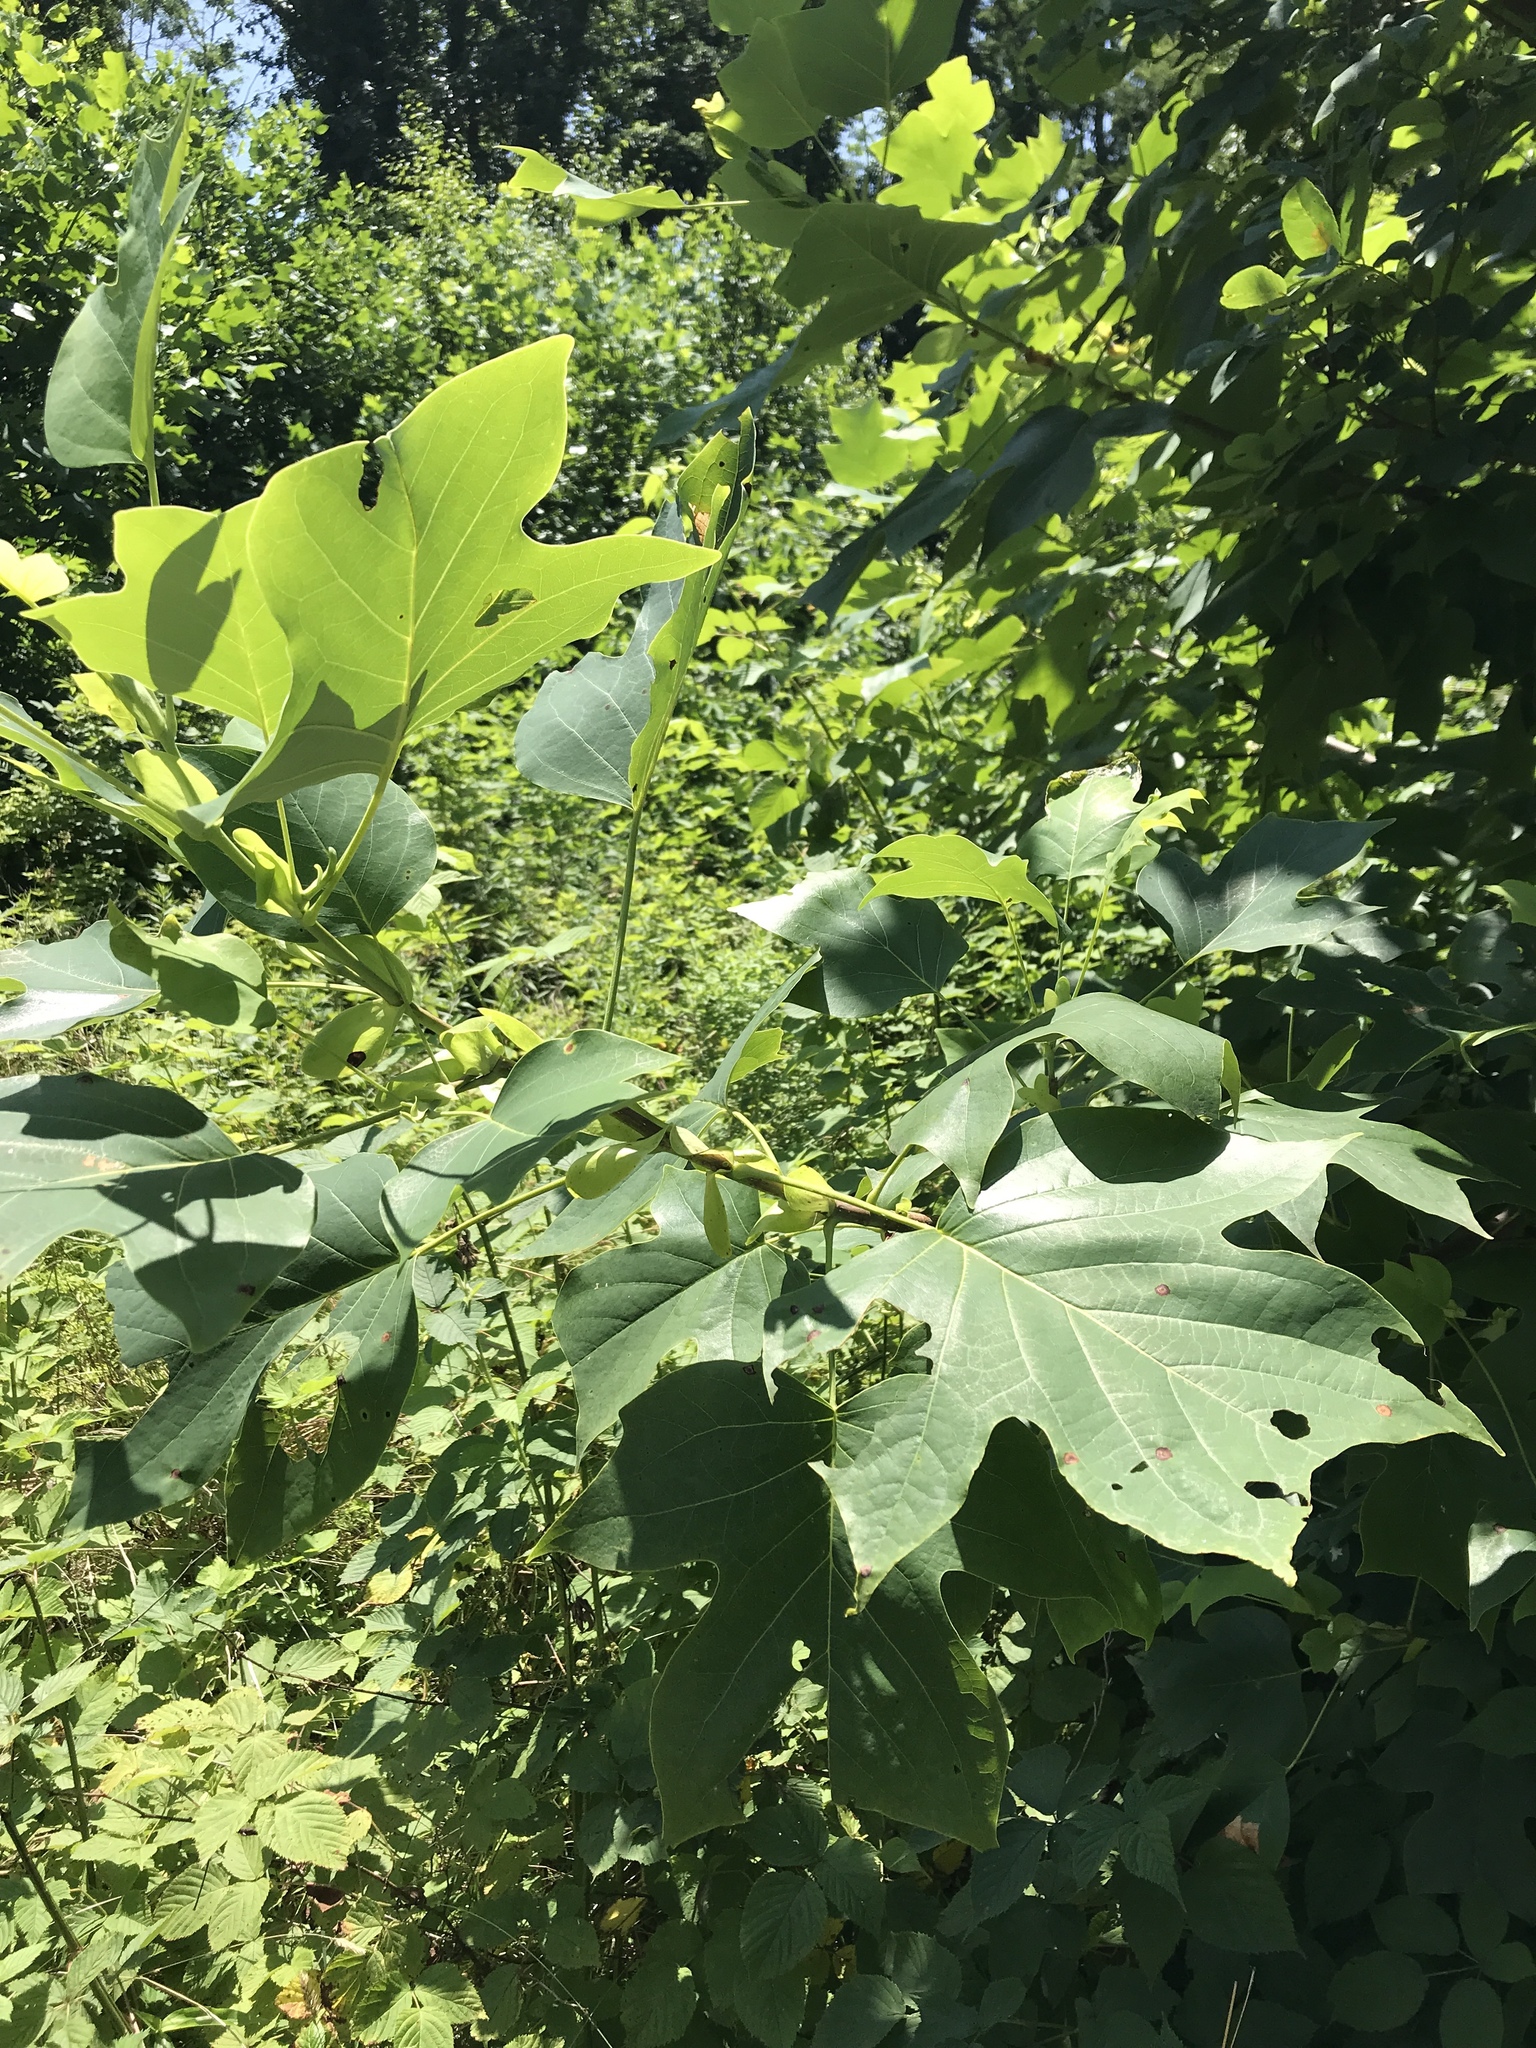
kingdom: Plantae
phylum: Tracheophyta
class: Magnoliopsida
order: Magnoliales
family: Magnoliaceae
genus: Liriodendron
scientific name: Liriodendron tulipifera
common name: Tulip tree
